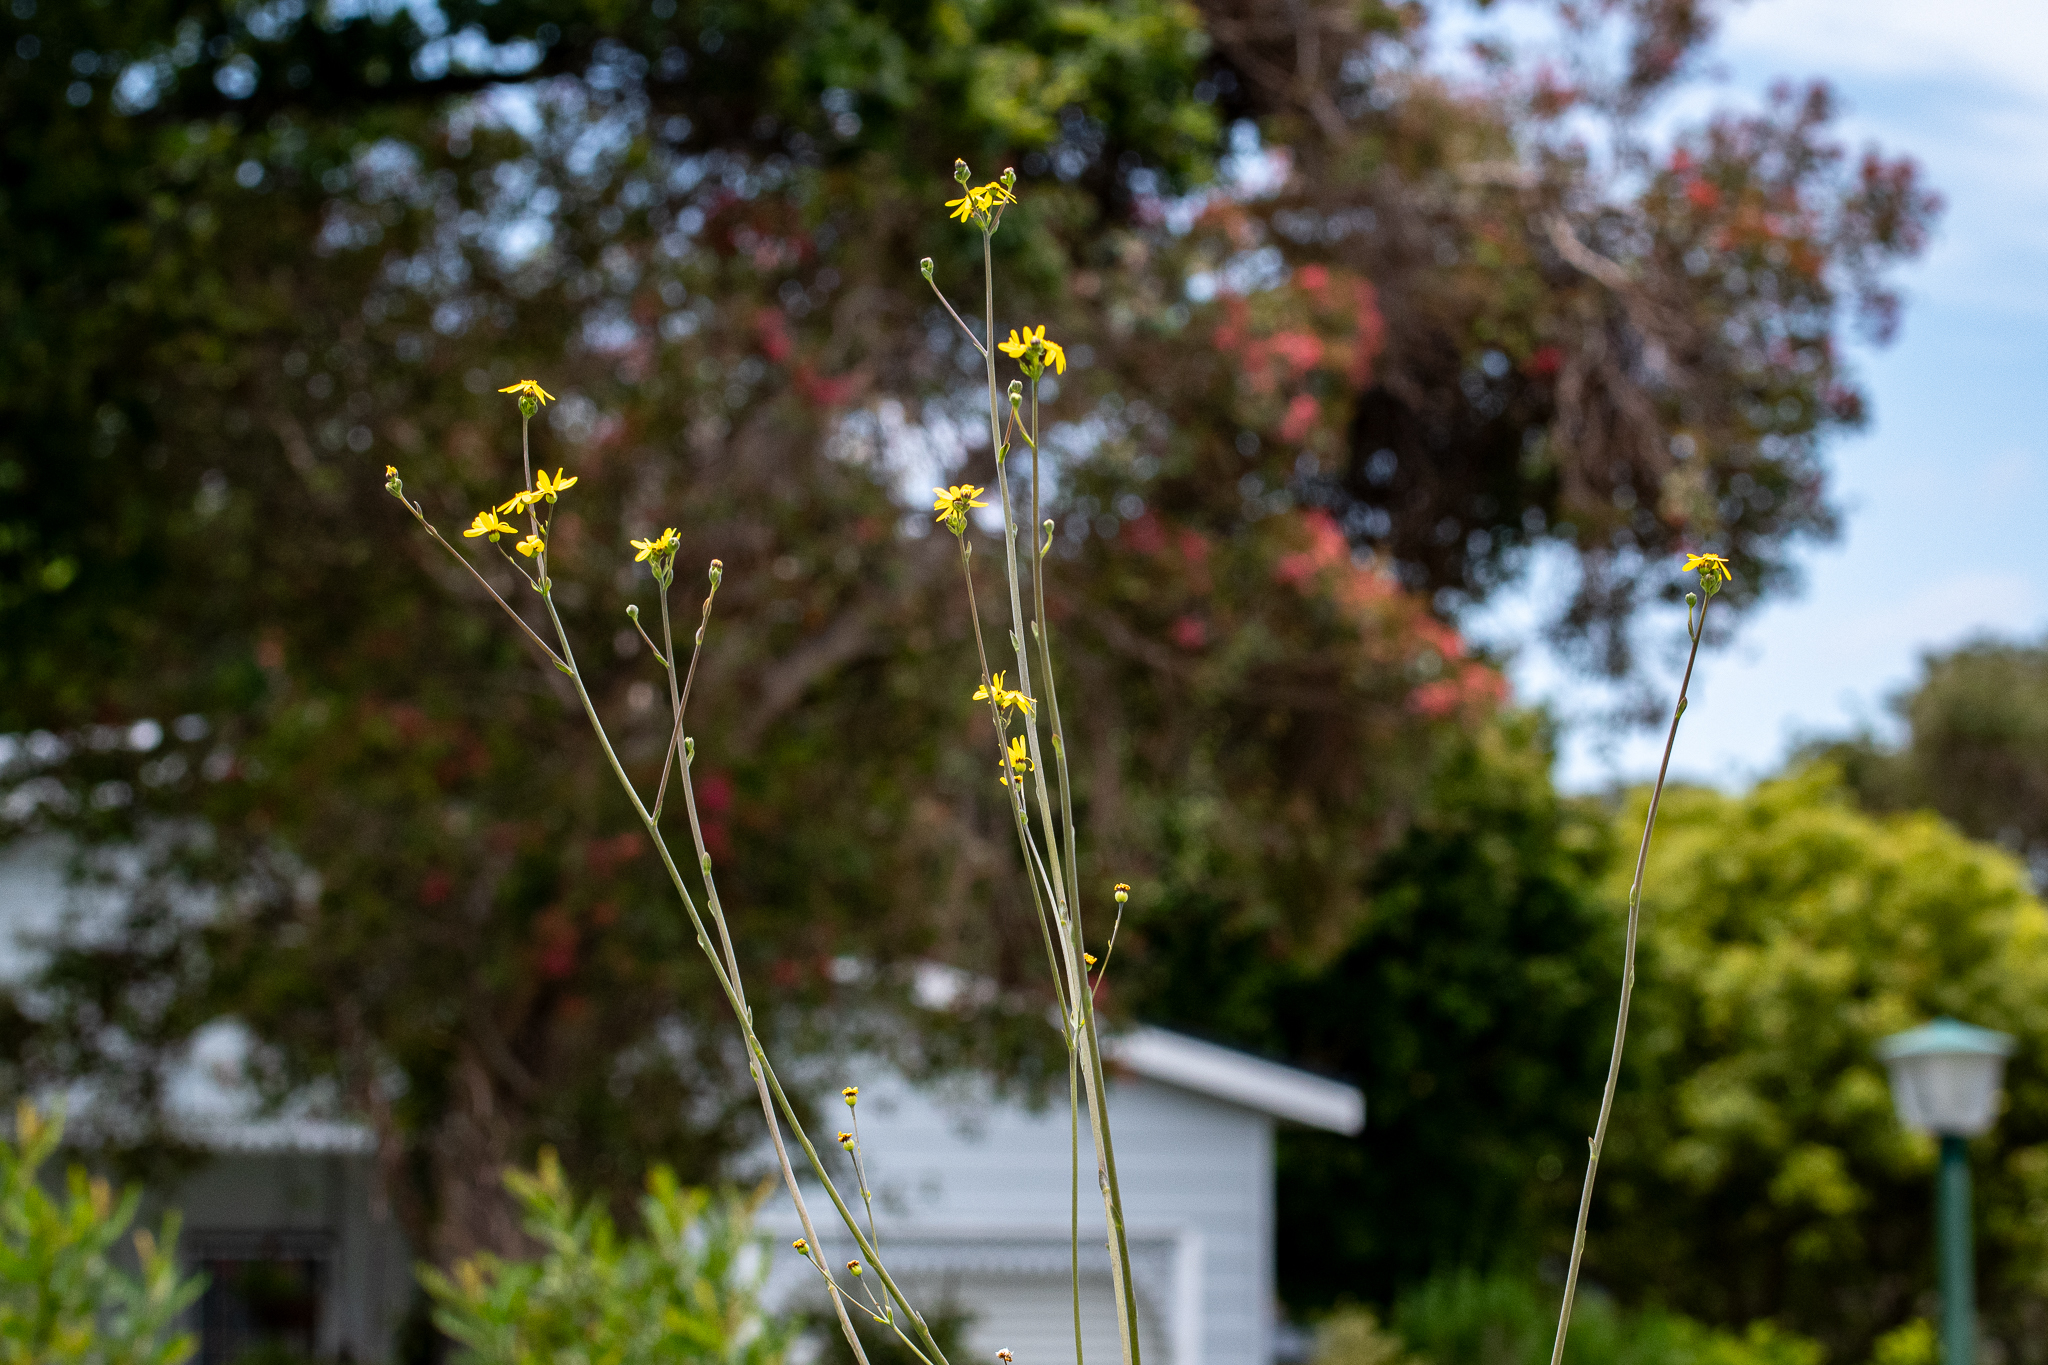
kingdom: Plantae
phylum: Tracheophyta
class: Magnoliopsida
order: Asterales
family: Asteraceae
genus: Othonna
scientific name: Othonna quinquedentata
